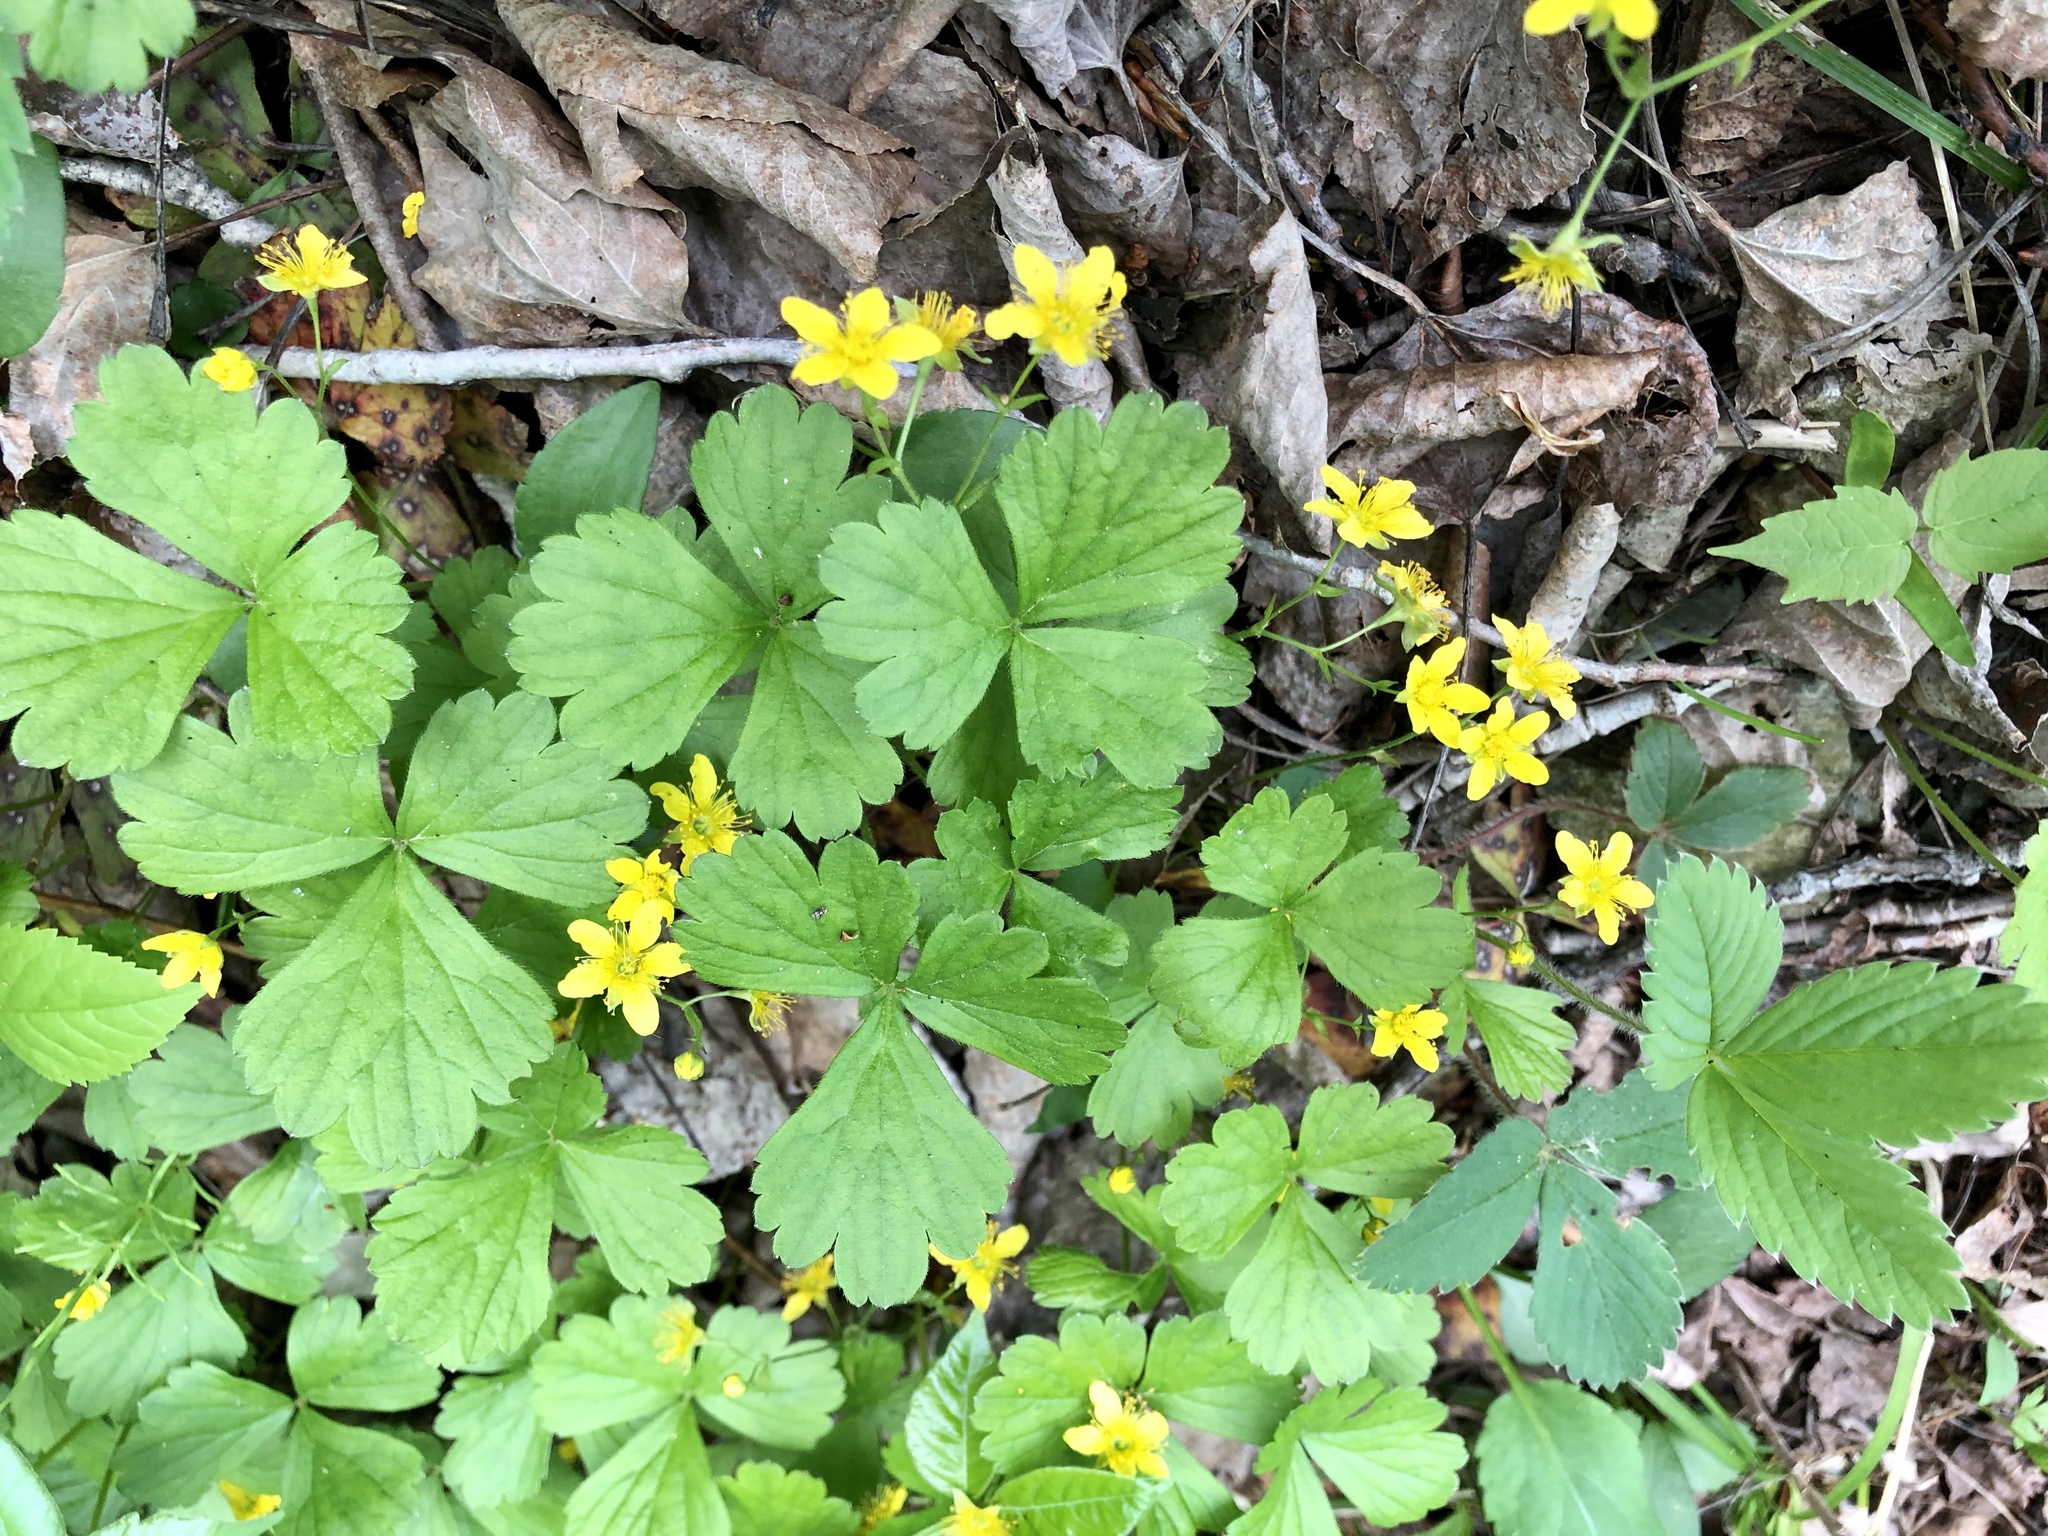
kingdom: Plantae
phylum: Tracheophyta
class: Magnoliopsida
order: Rosales
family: Rosaceae
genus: Geum
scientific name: Geum fragarioides
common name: Appalachian barren strawberry
